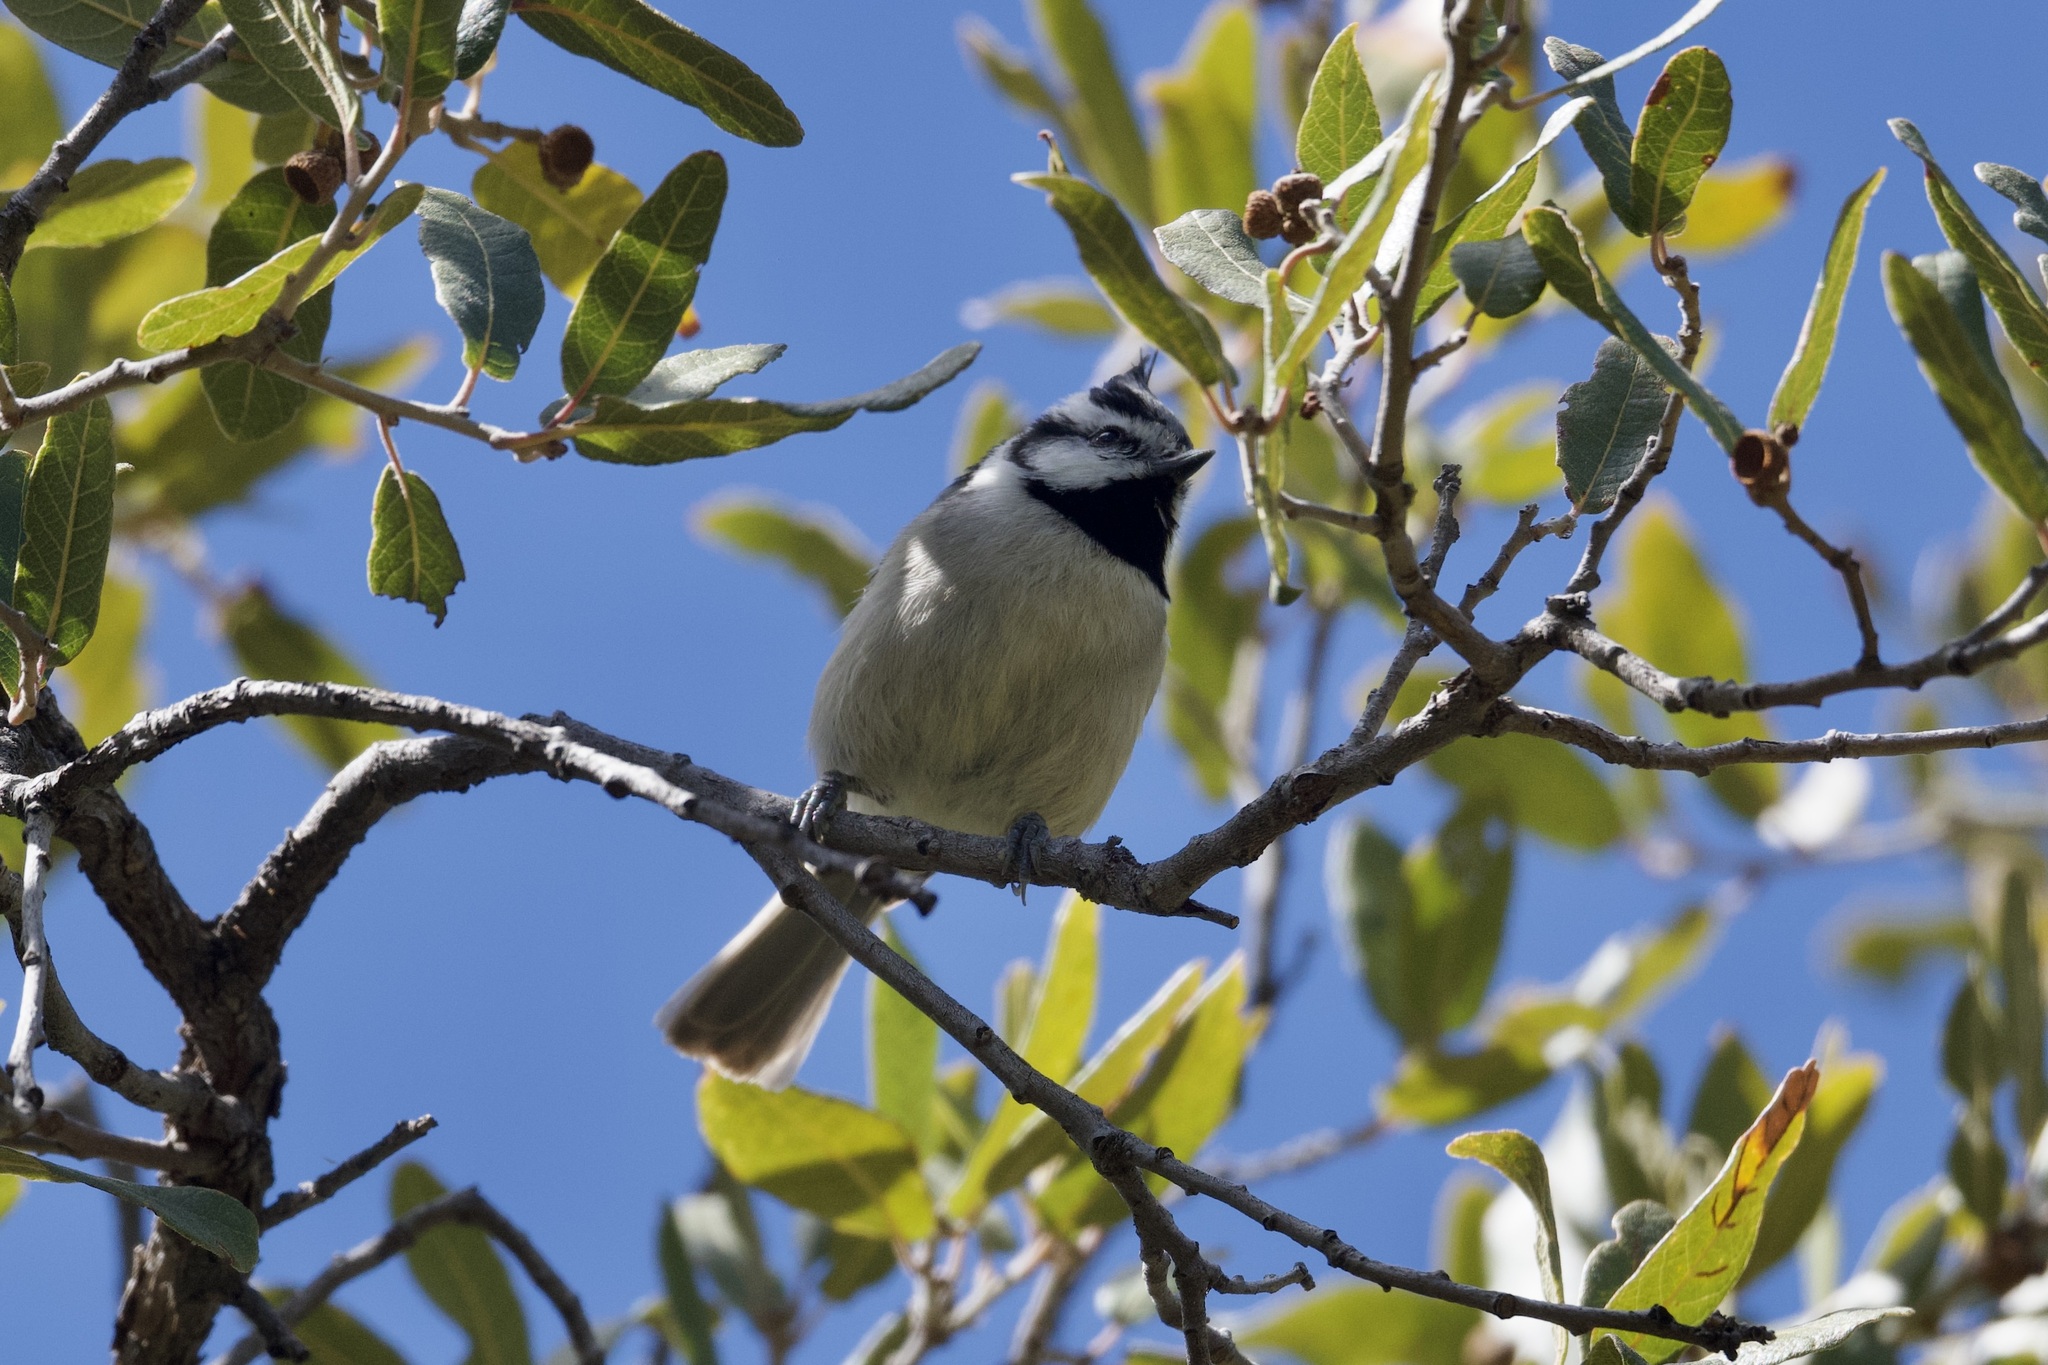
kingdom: Animalia
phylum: Chordata
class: Aves
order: Passeriformes
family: Paridae
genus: Baeolophus
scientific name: Baeolophus wollweberi
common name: Bridled titmouse
